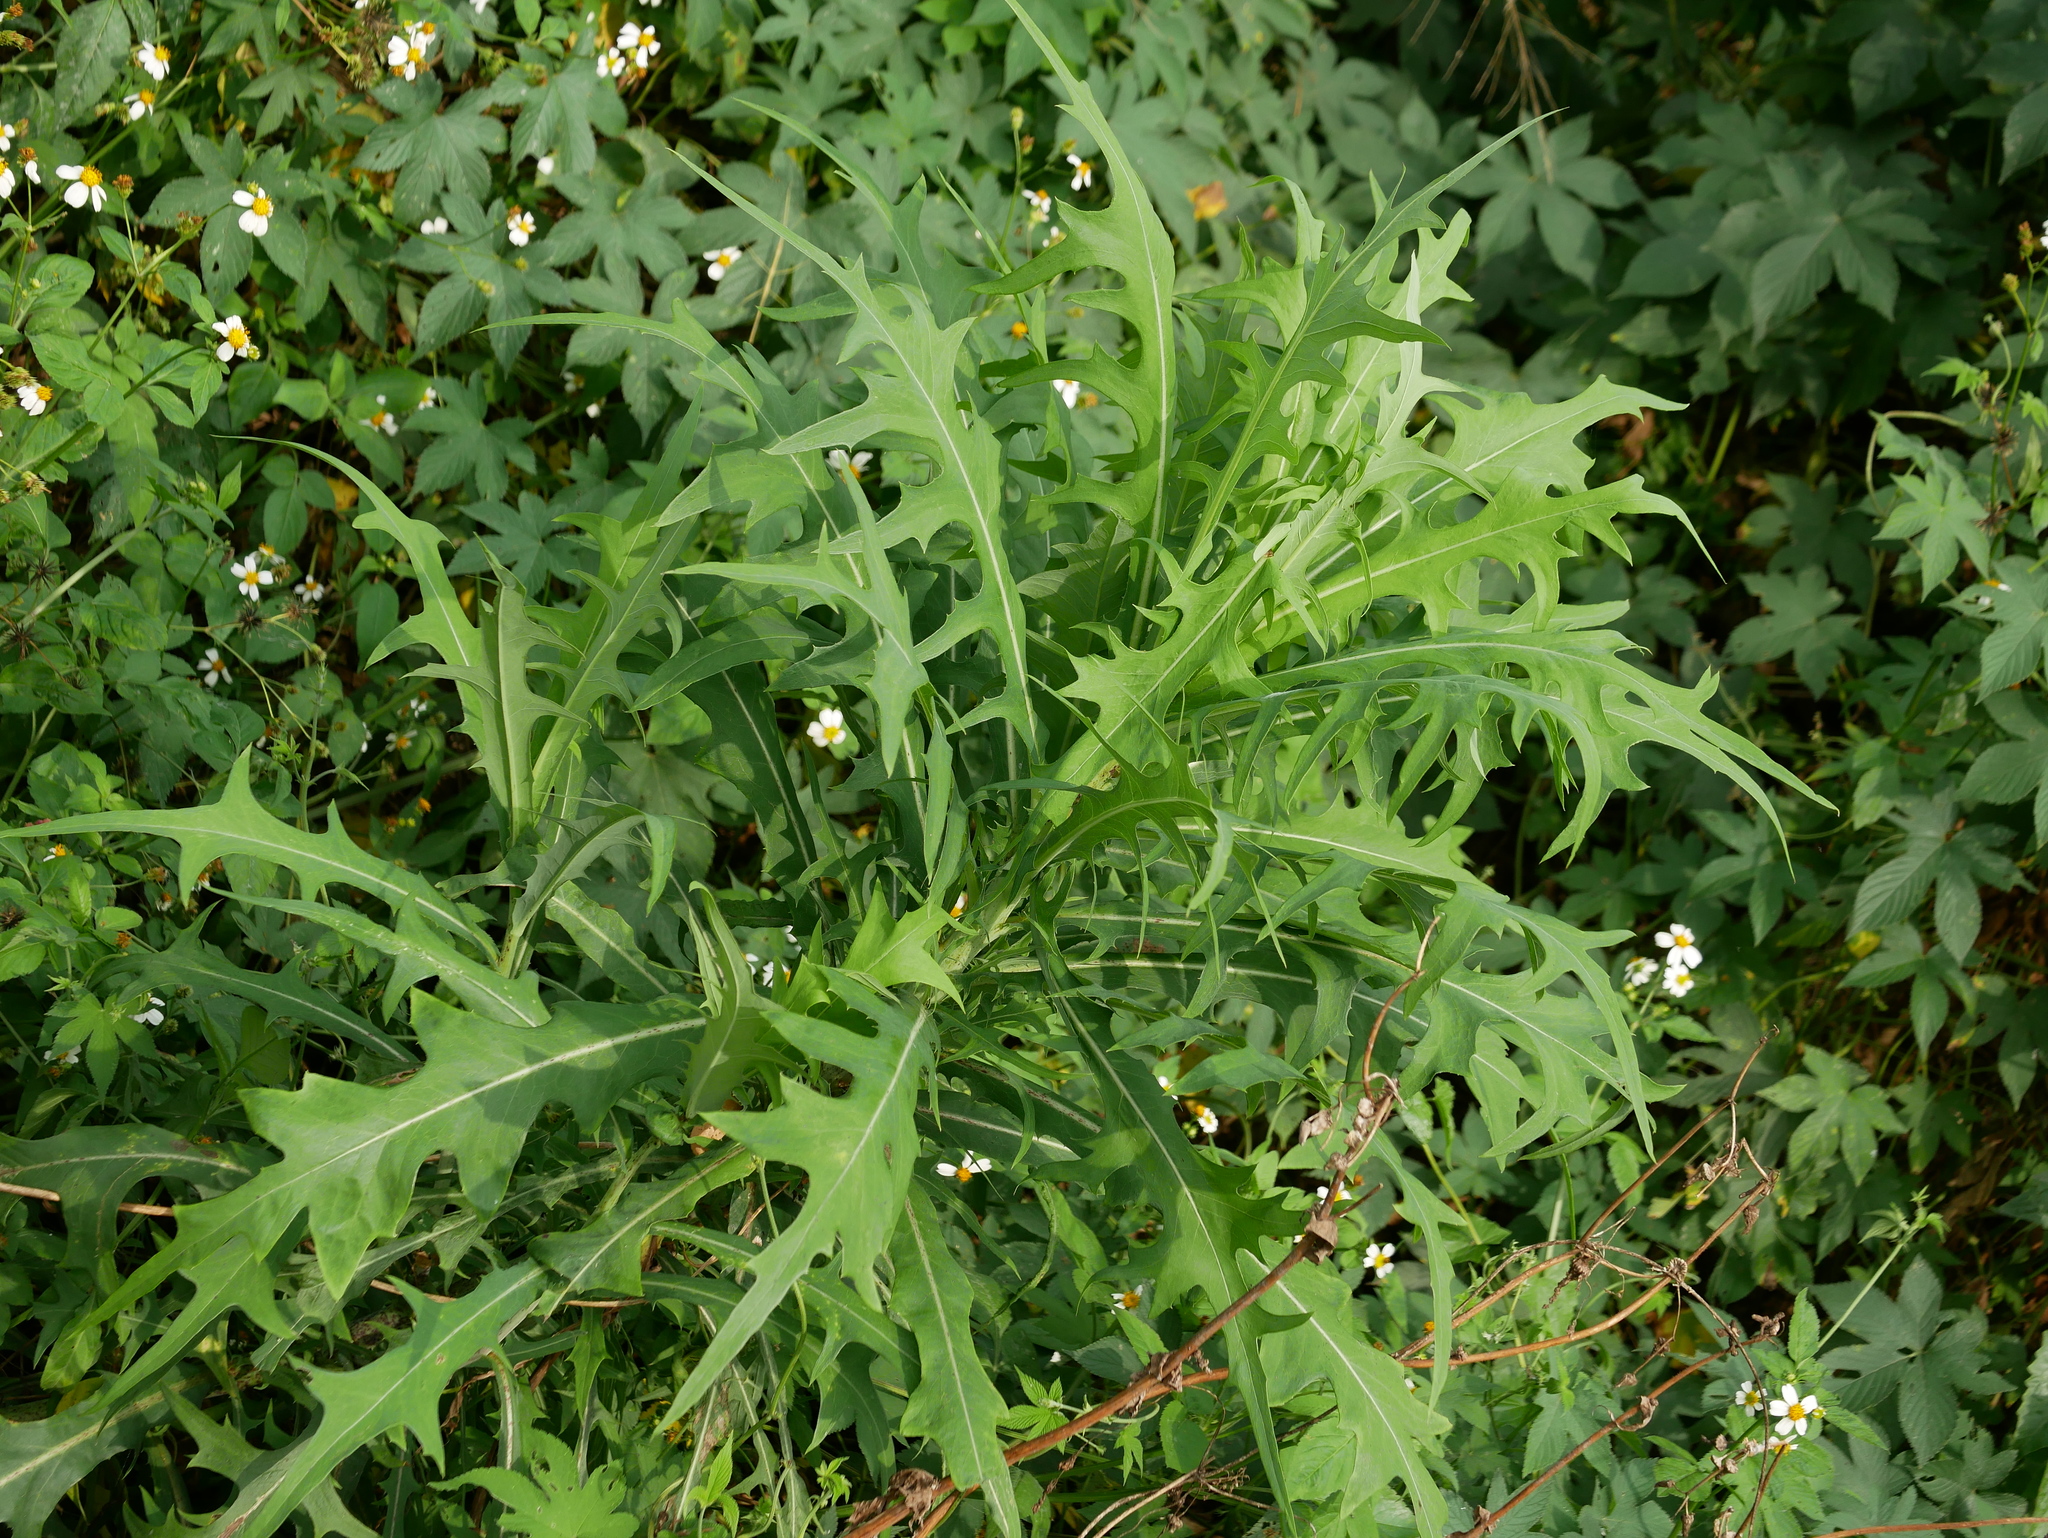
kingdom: Plantae
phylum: Tracheophyta
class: Magnoliopsida
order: Asterales
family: Asteraceae
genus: Lactuca
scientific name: Lactuca indica
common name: Wild lettuce
